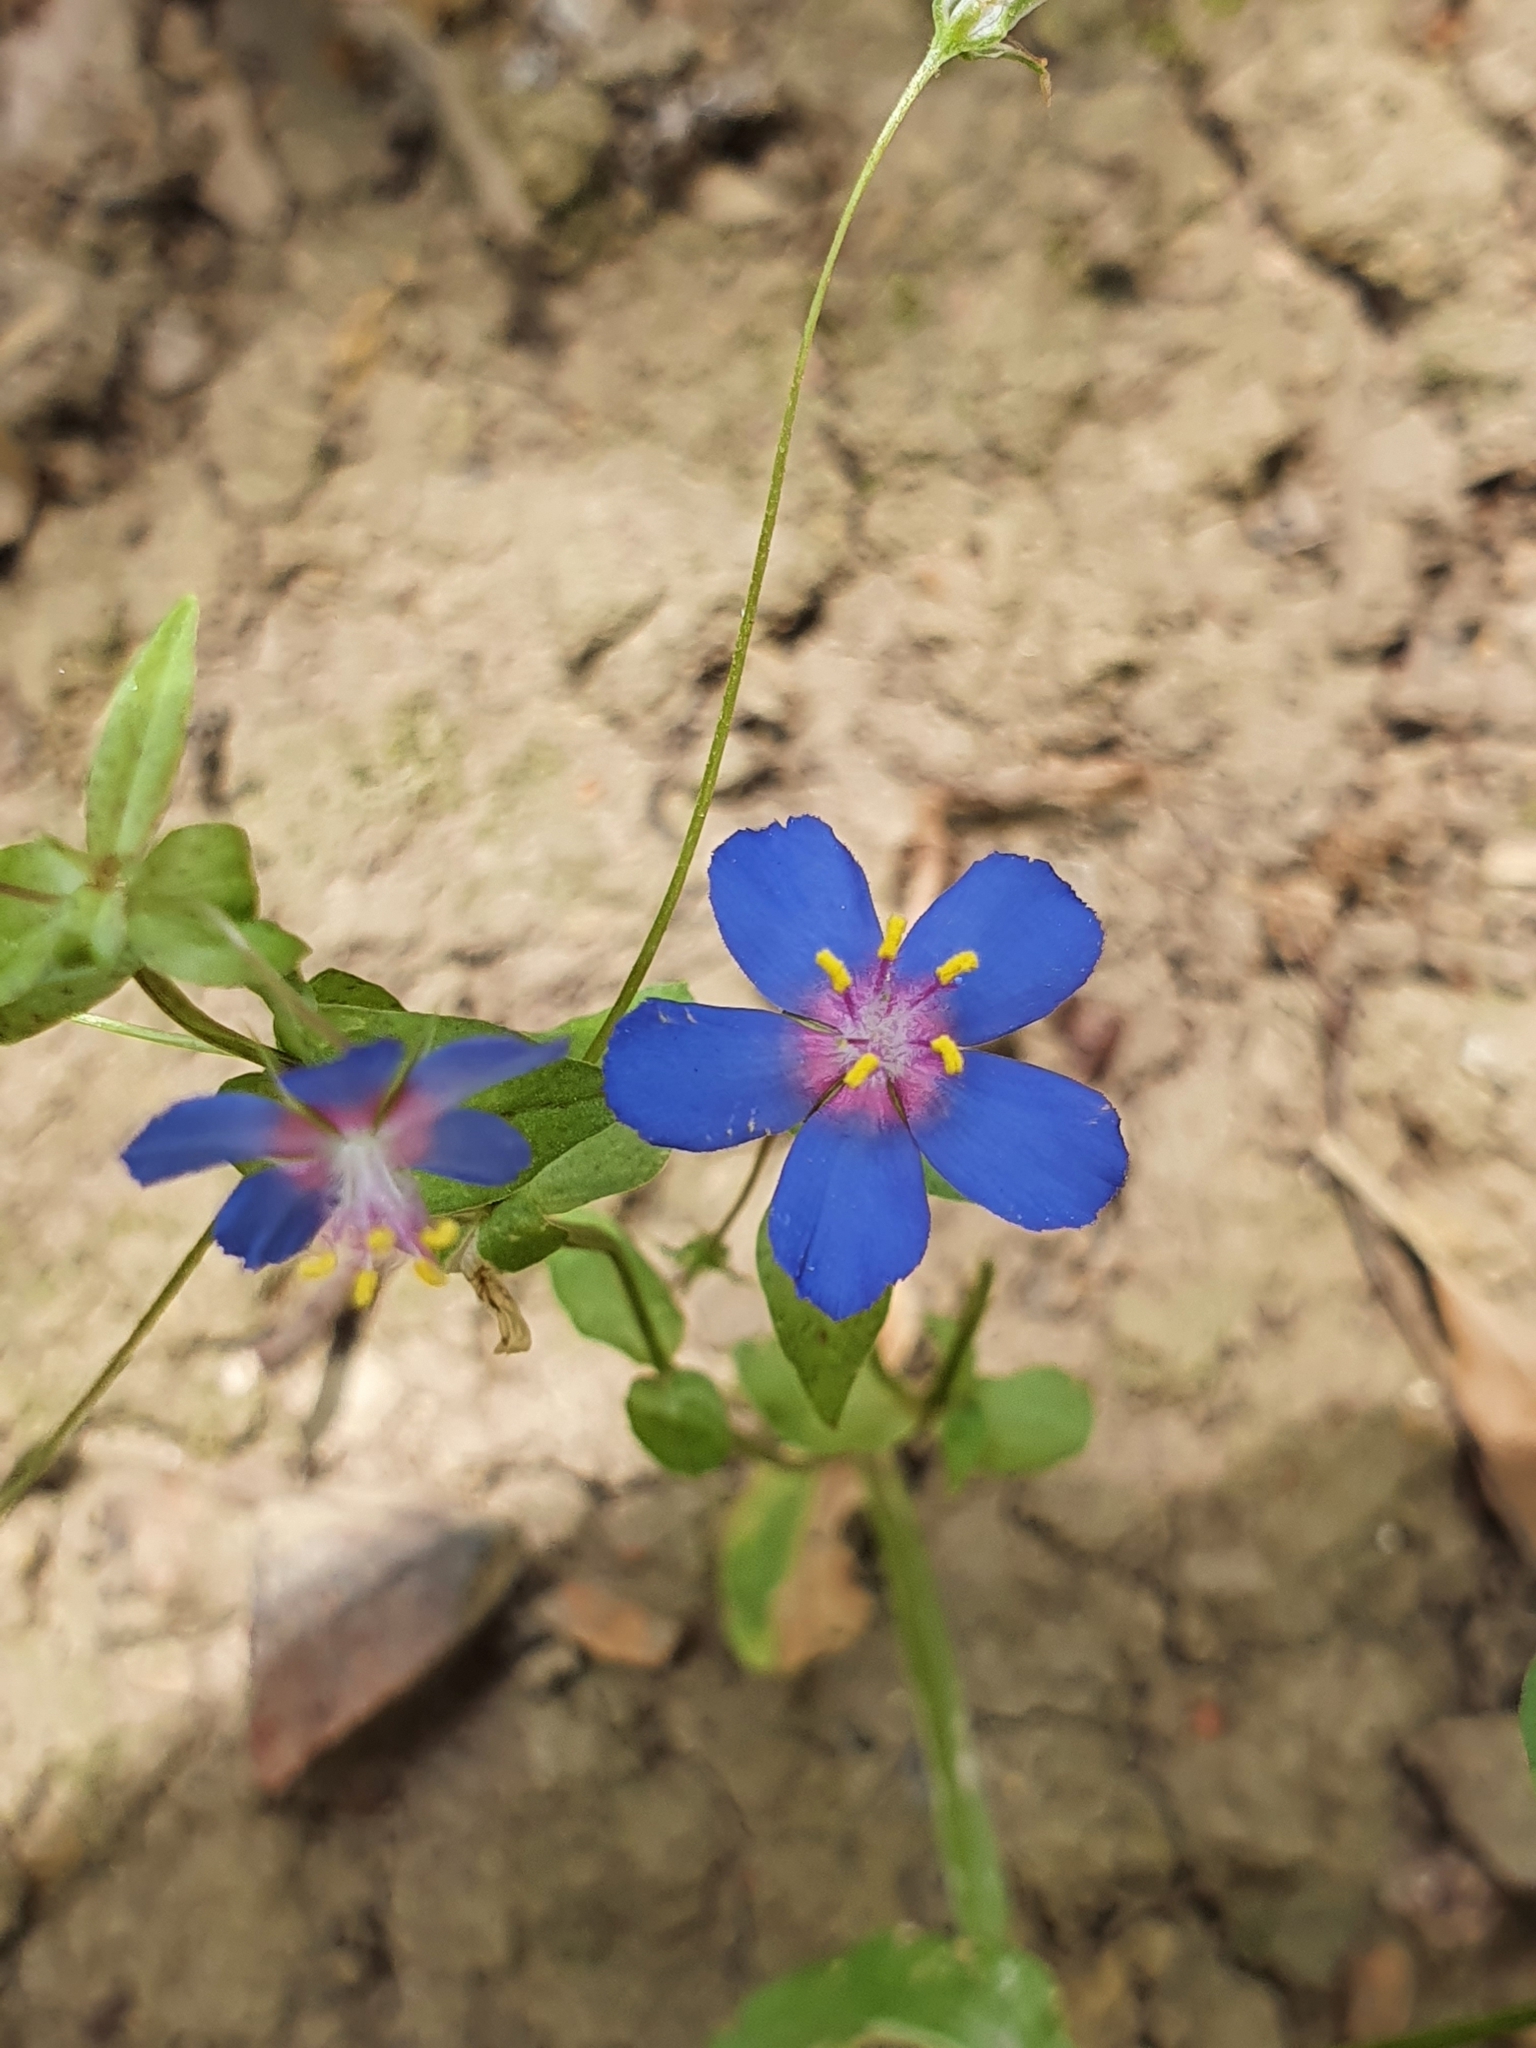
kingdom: Plantae
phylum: Tracheophyta
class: Magnoliopsida
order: Ericales
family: Primulaceae
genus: Lysimachia
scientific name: Lysimachia arvensis
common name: Scarlet pimpernel
